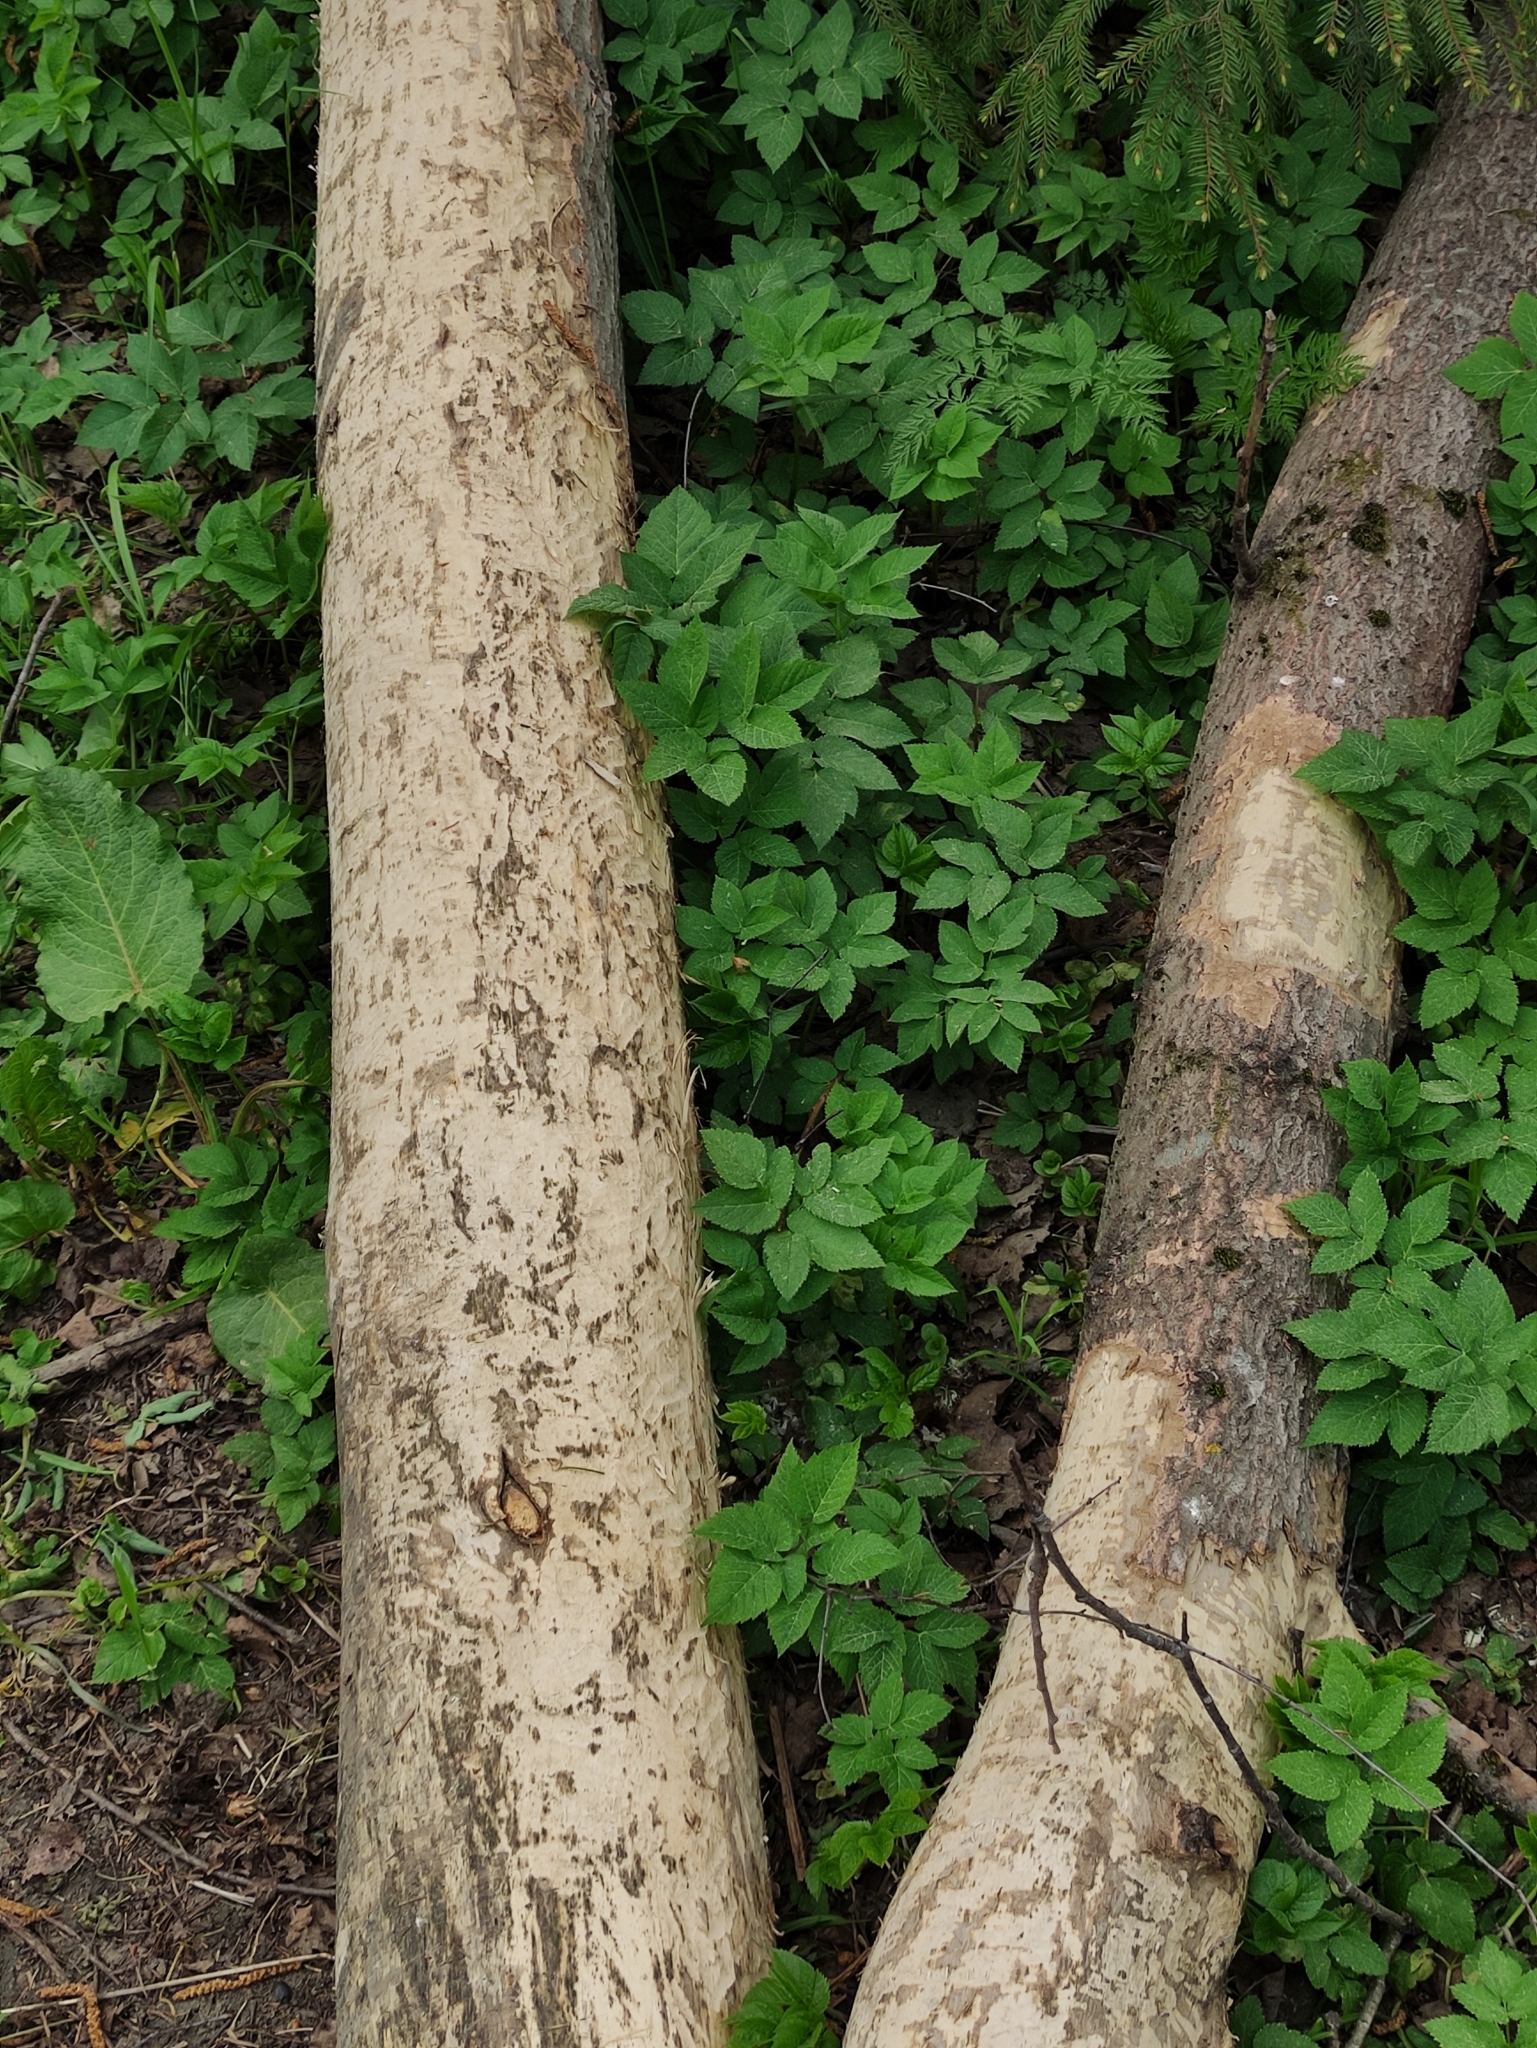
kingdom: Animalia
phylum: Chordata
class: Mammalia
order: Rodentia
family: Castoridae
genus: Castor
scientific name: Castor fiber
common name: Eurasian beaver
